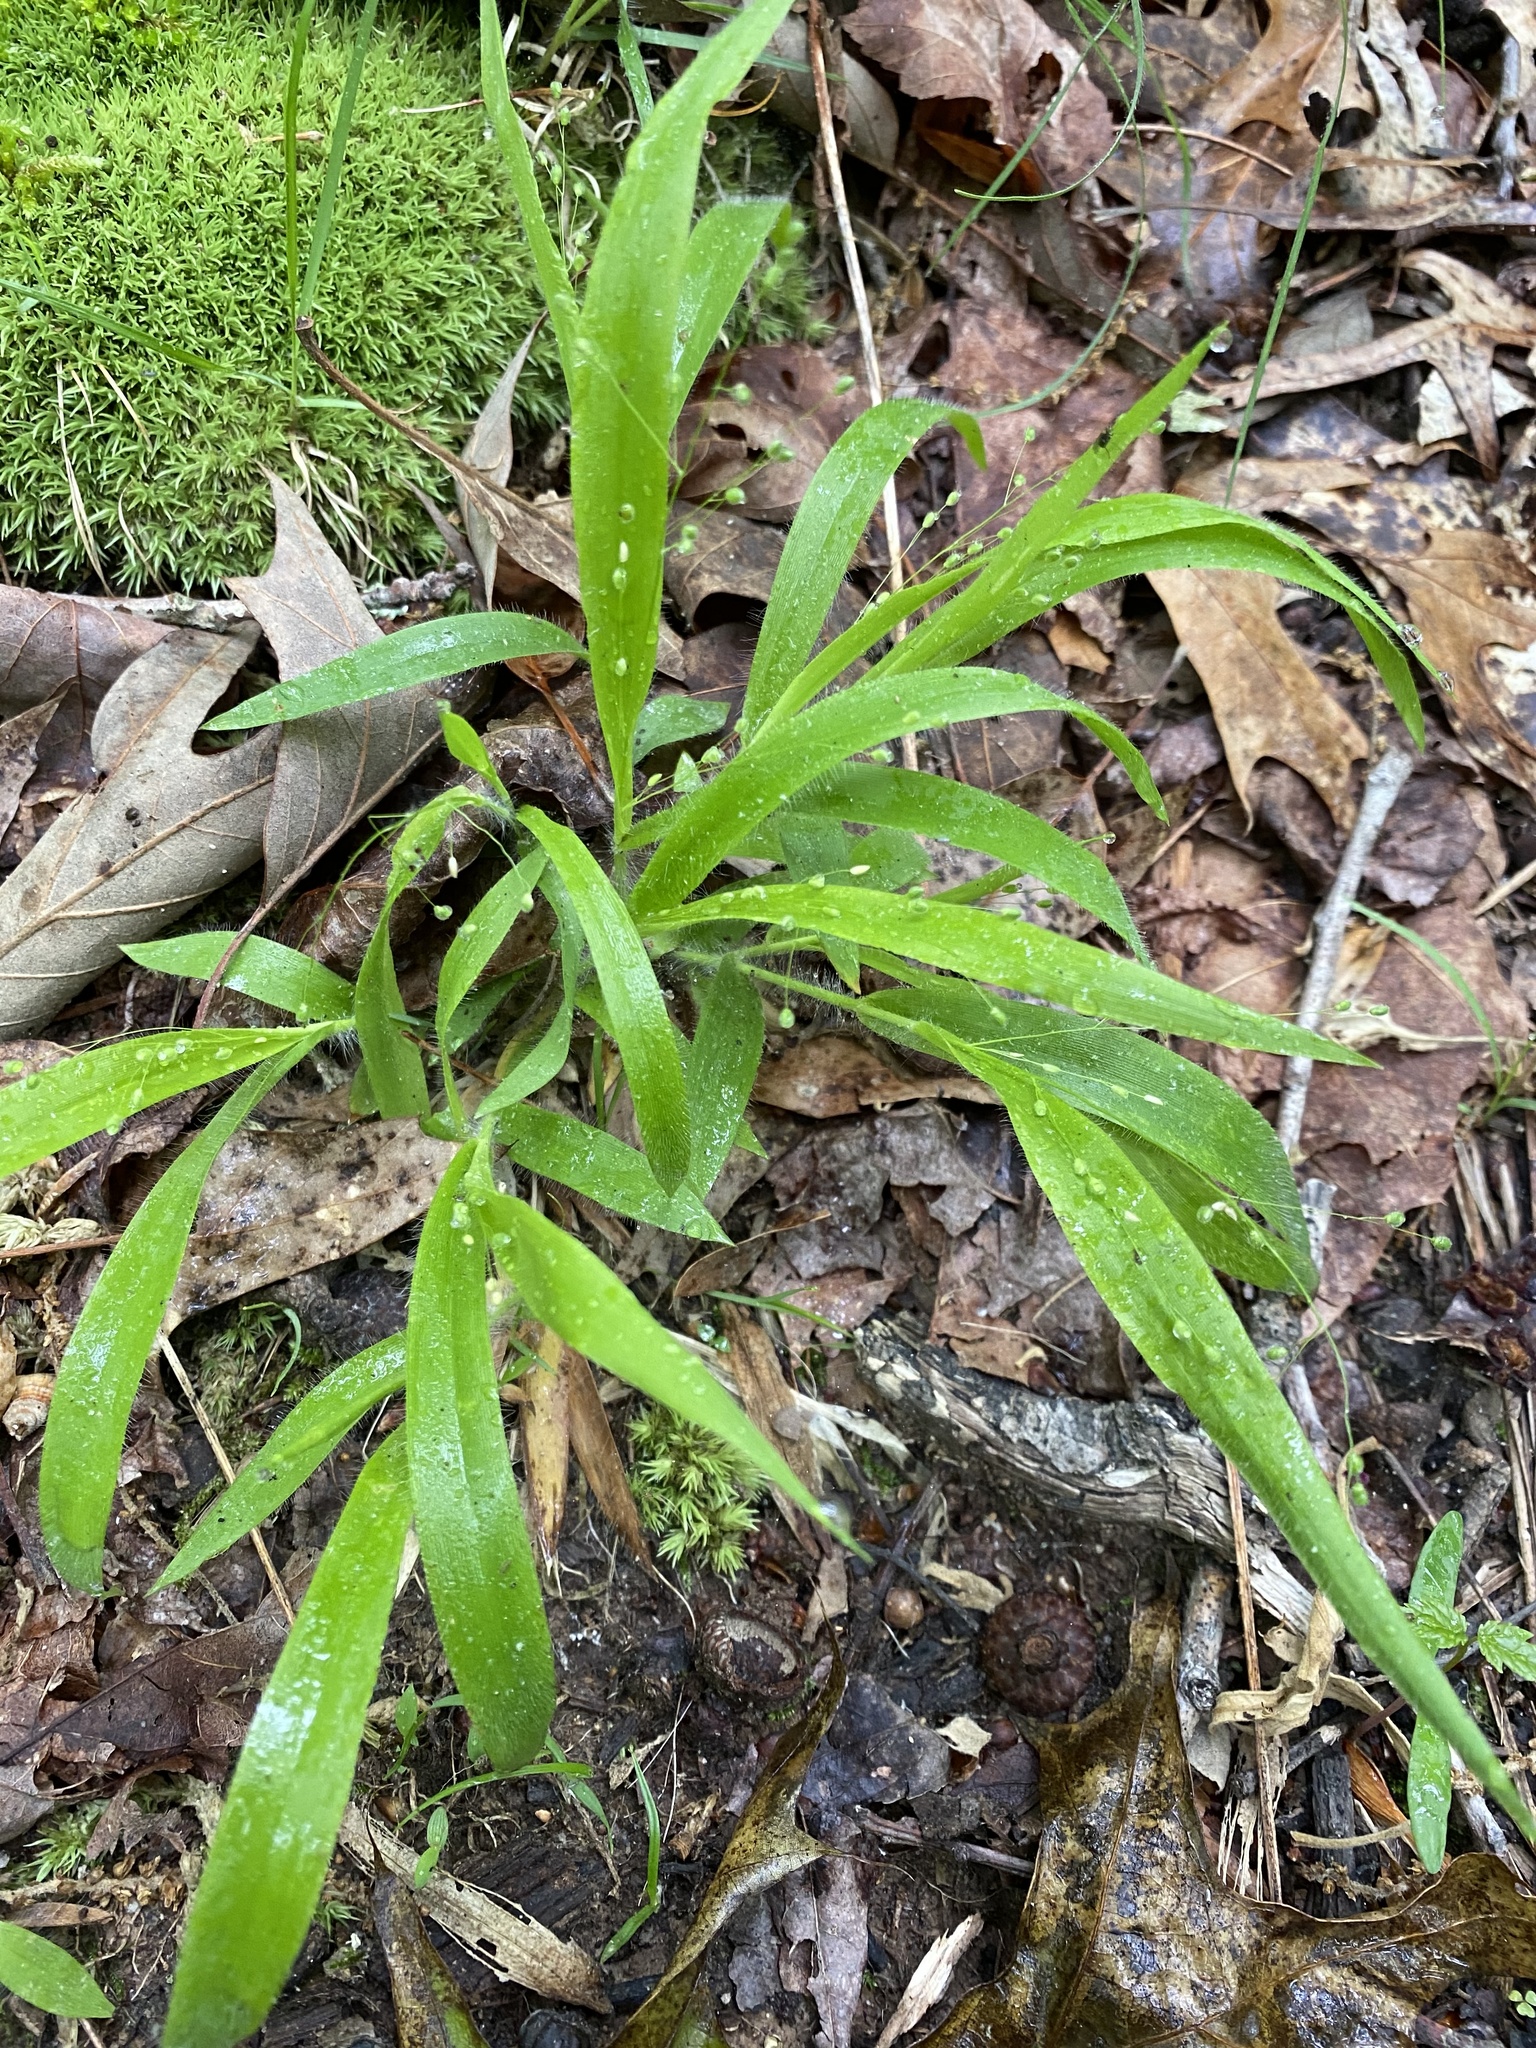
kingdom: Plantae
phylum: Tracheophyta
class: Liliopsida
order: Poales
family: Poaceae
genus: Dichanthelium
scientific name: Dichanthelium laxiflorum
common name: Soft-tuft panic grass
